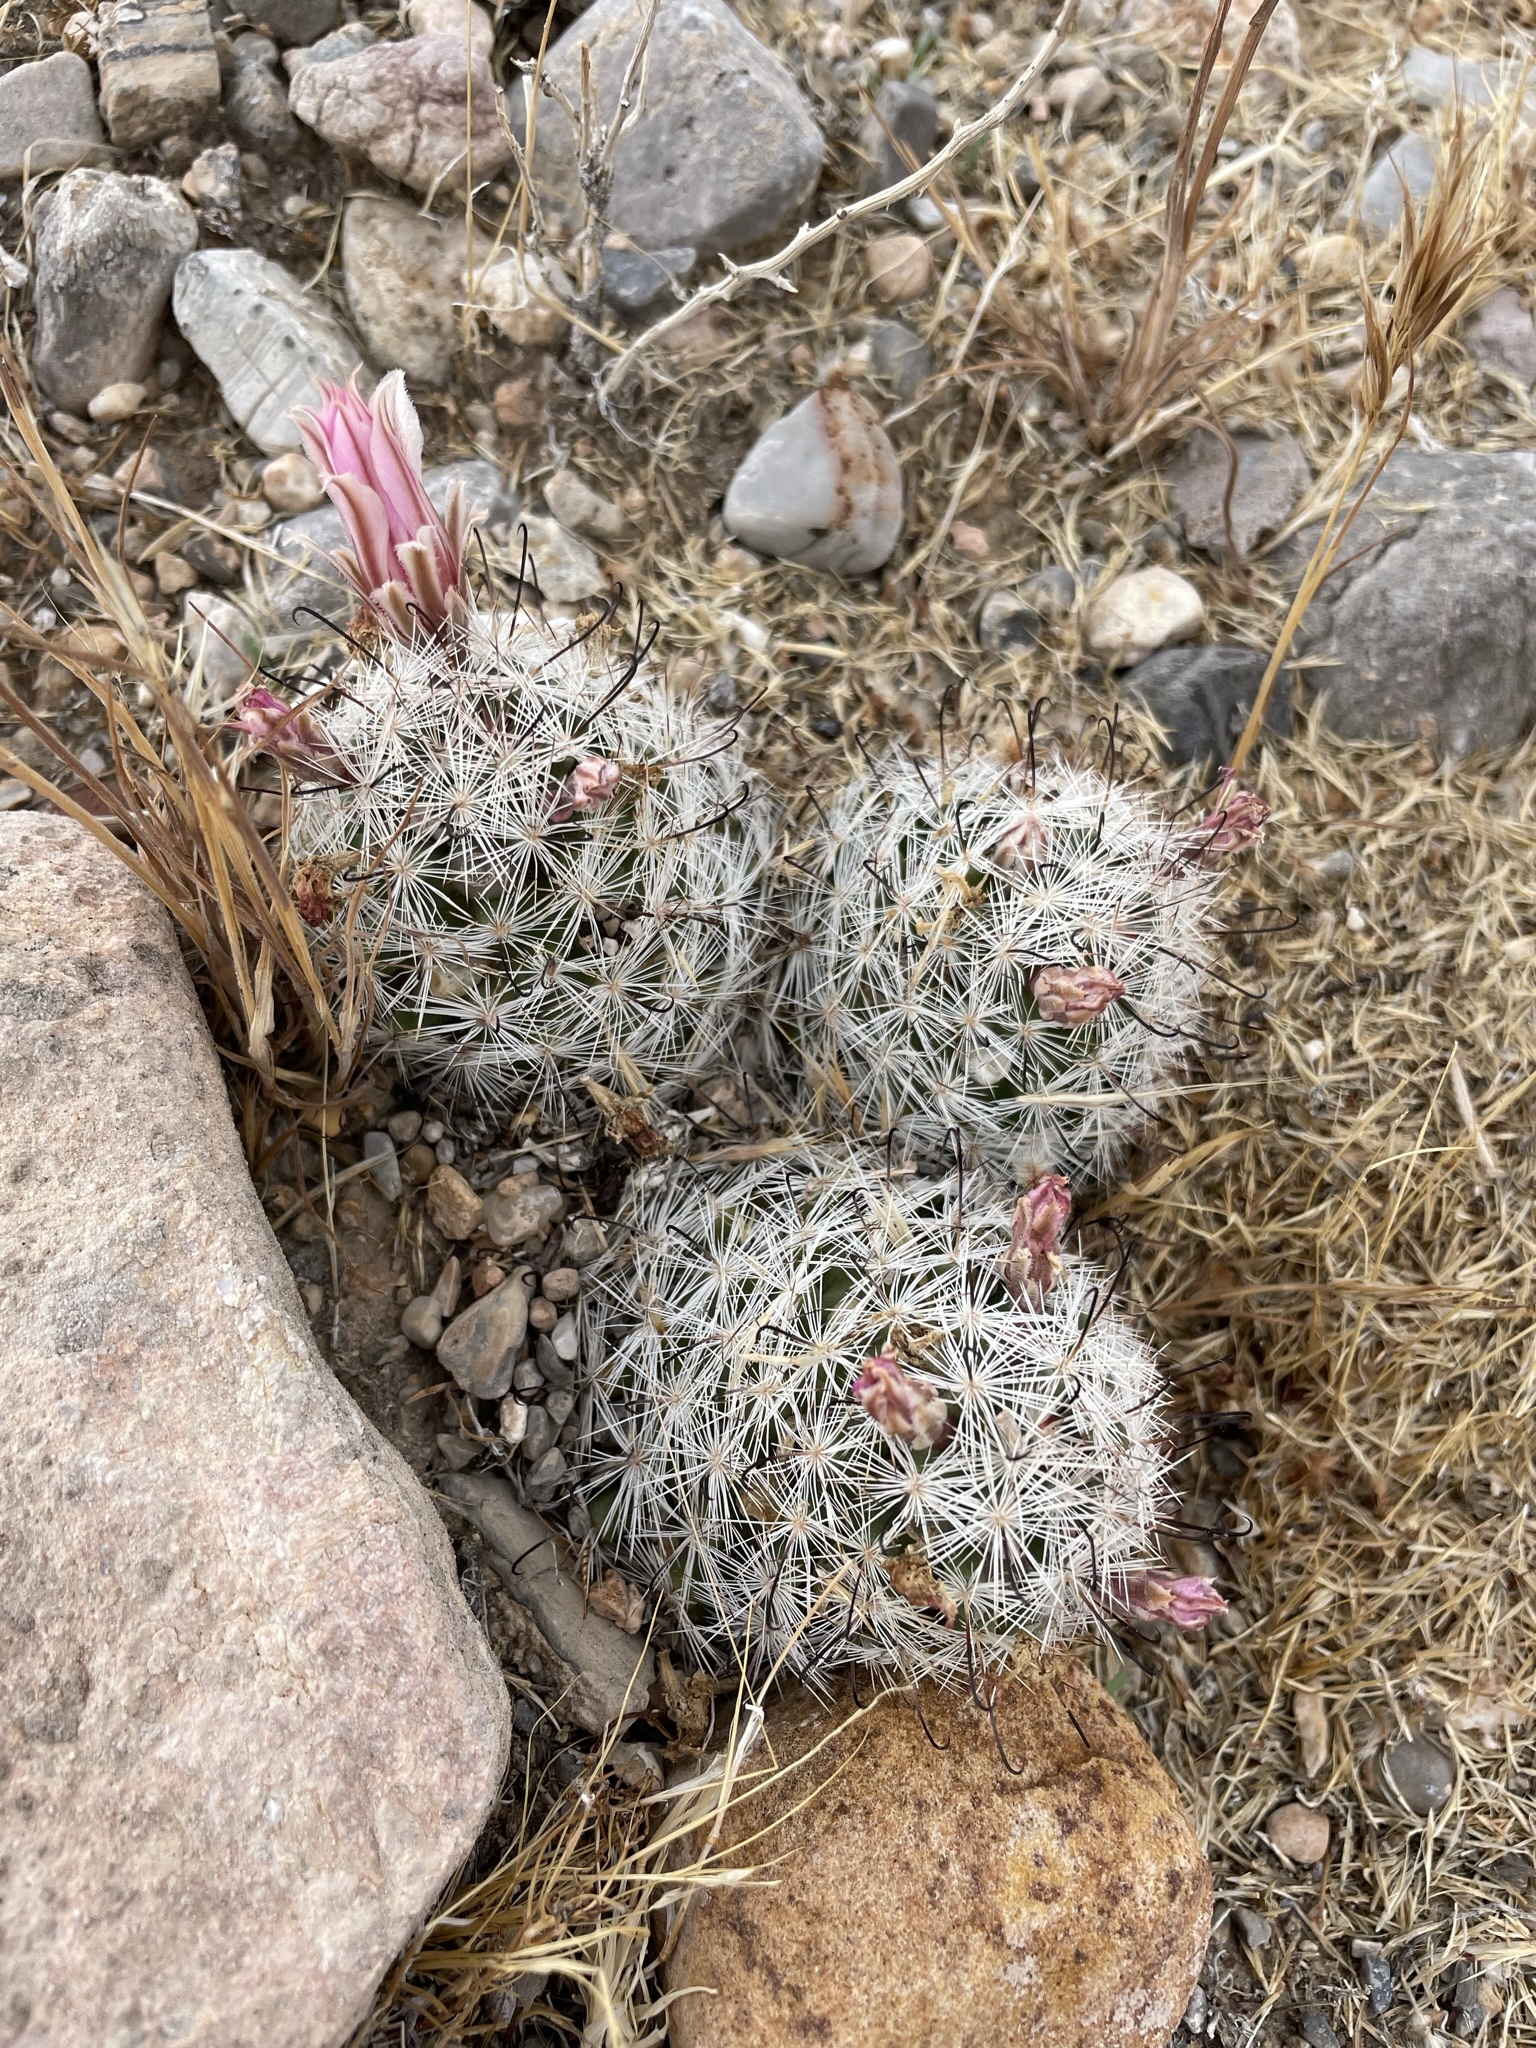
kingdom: Plantae
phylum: Tracheophyta
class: Magnoliopsida
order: Caryophyllales
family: Cactaceae
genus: Cochemiea
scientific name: Cochemiea tetrancistra
